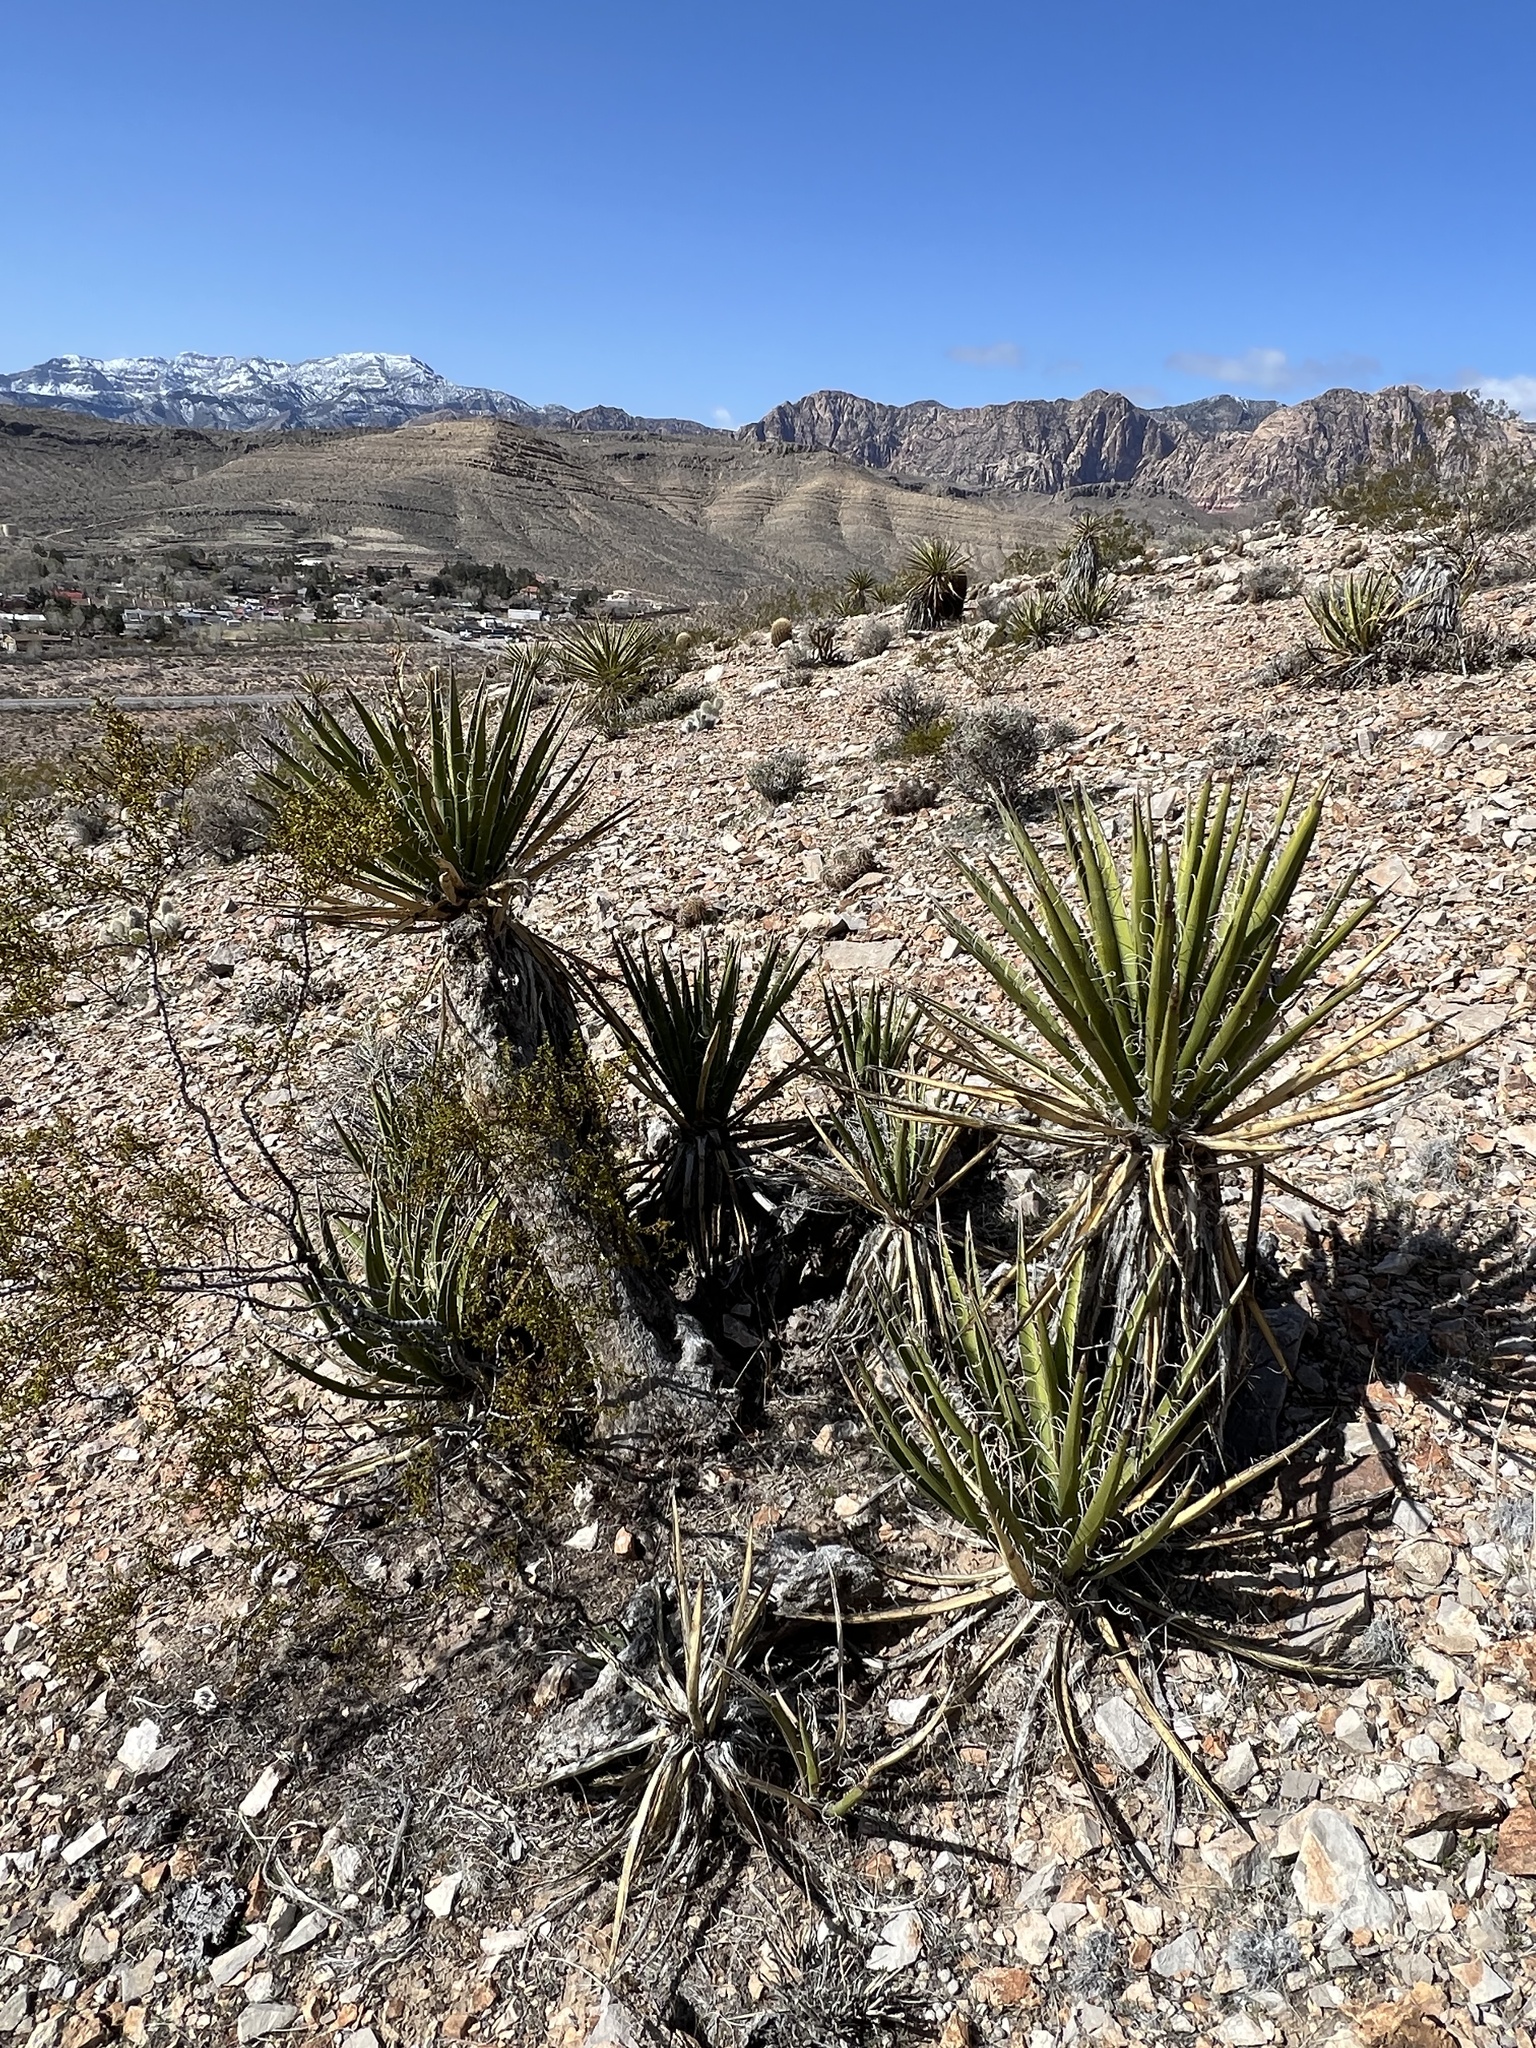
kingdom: Plantae
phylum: Tracheophyta
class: Liliopsida
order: Asparagales
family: Asparagaceae
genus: Yucca
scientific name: Yucca schidigera
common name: Mojave yucca
